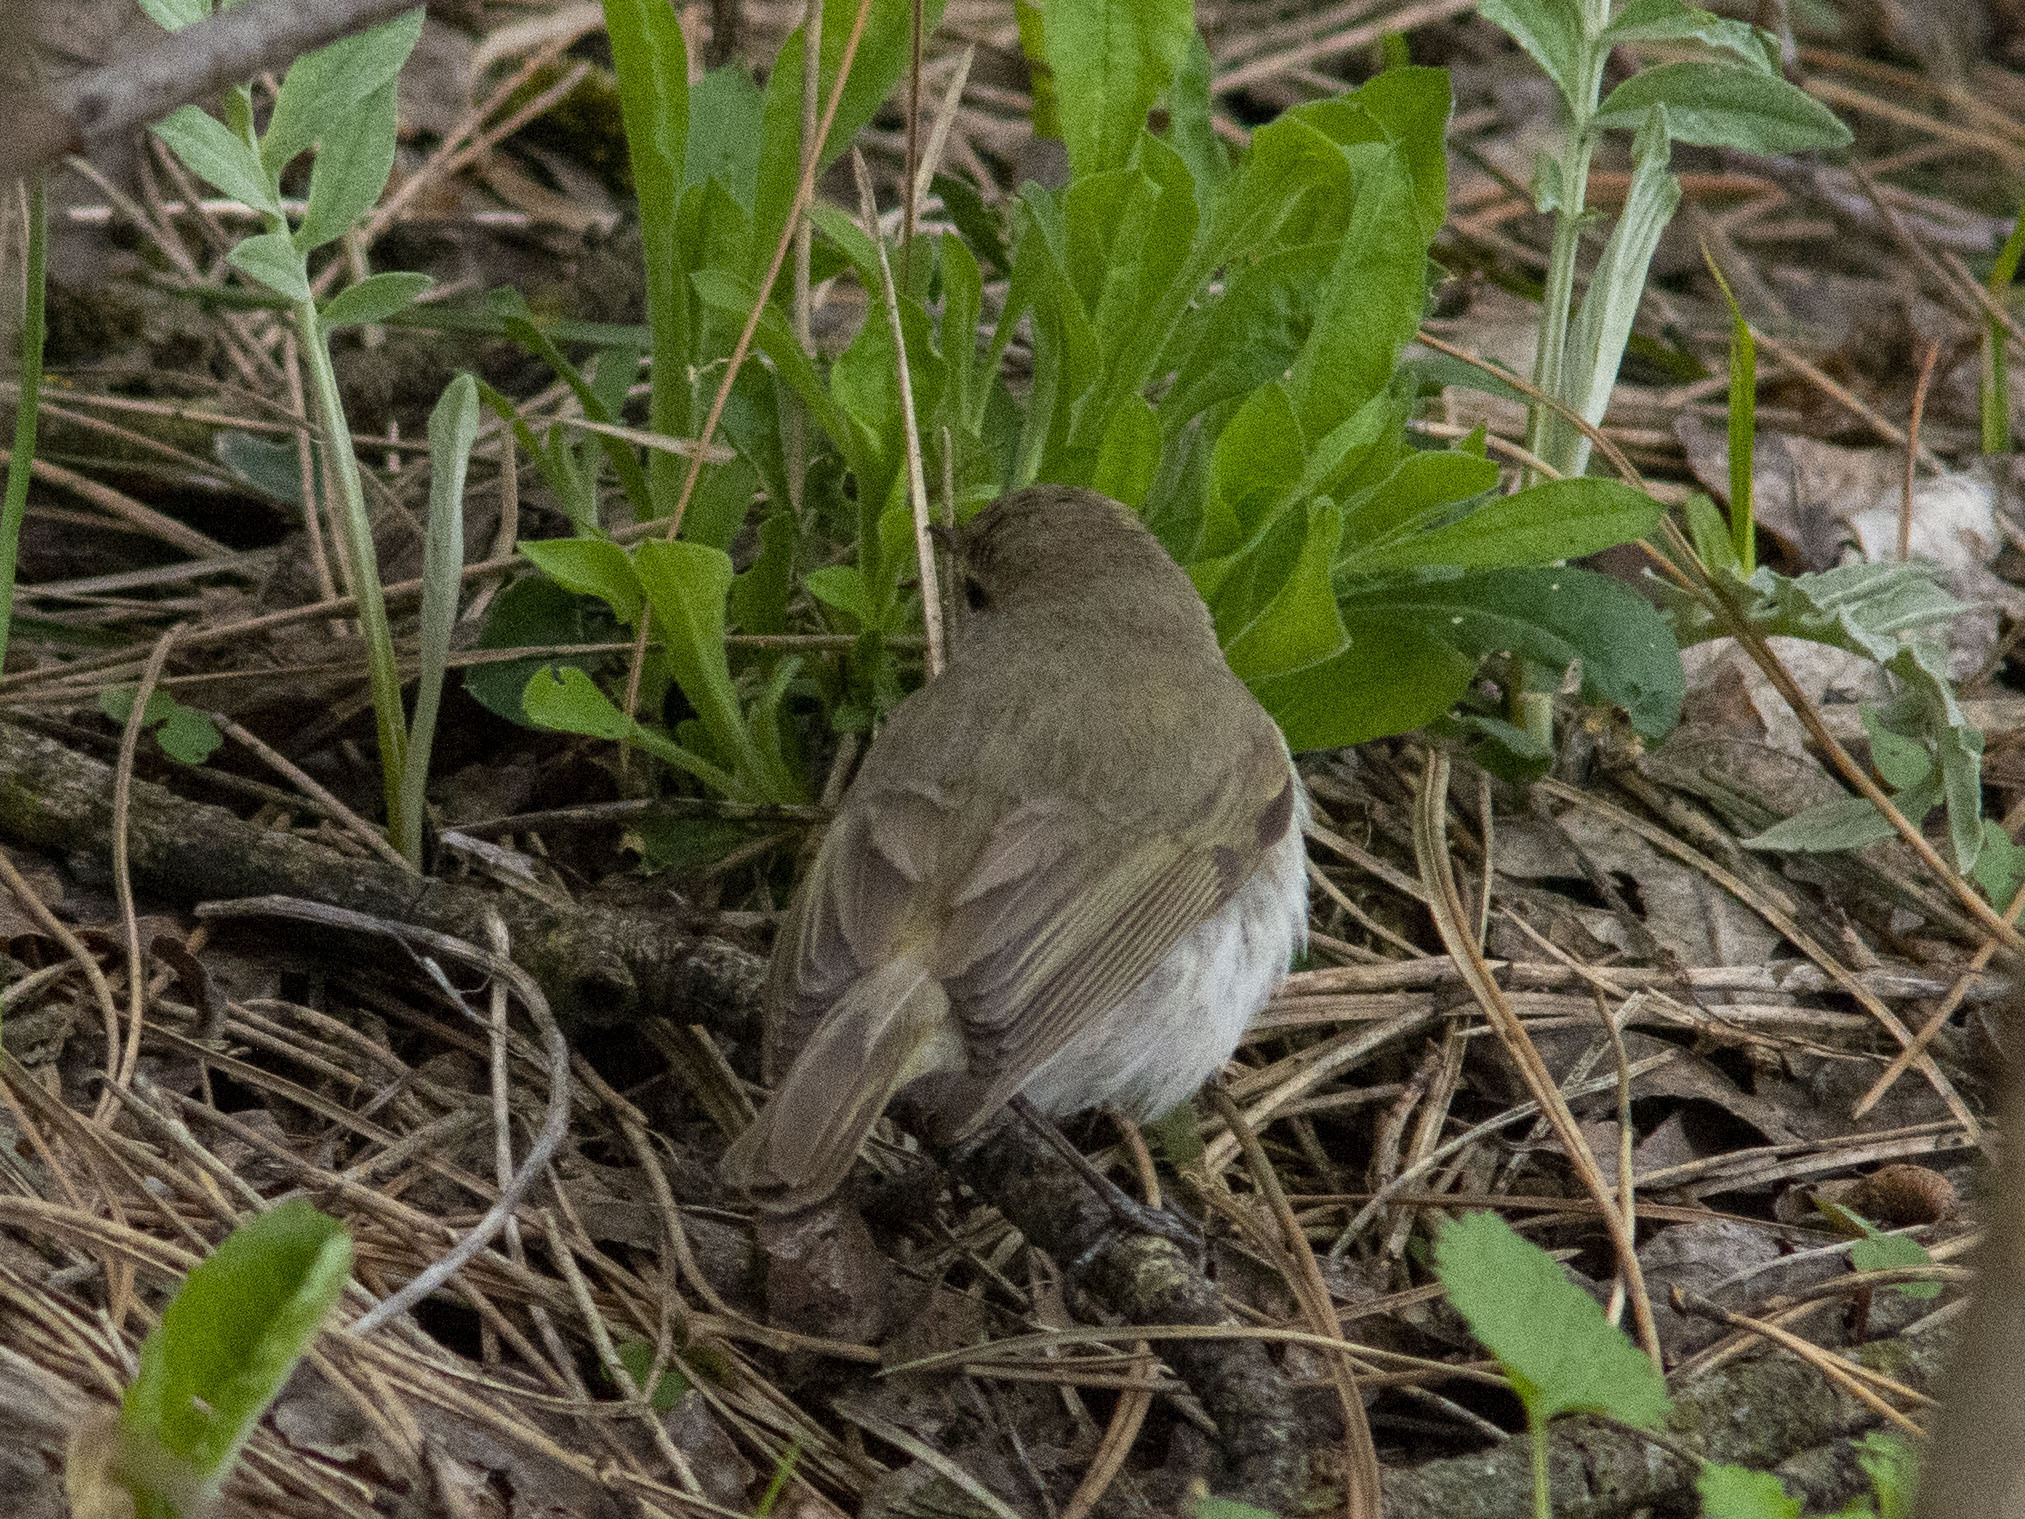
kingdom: Animalia
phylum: Chordata
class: Aves
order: Passeriformes
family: Phylloscopidae
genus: Phylloscopus
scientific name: Phylloscopus collybita
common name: Common chiffchaff
